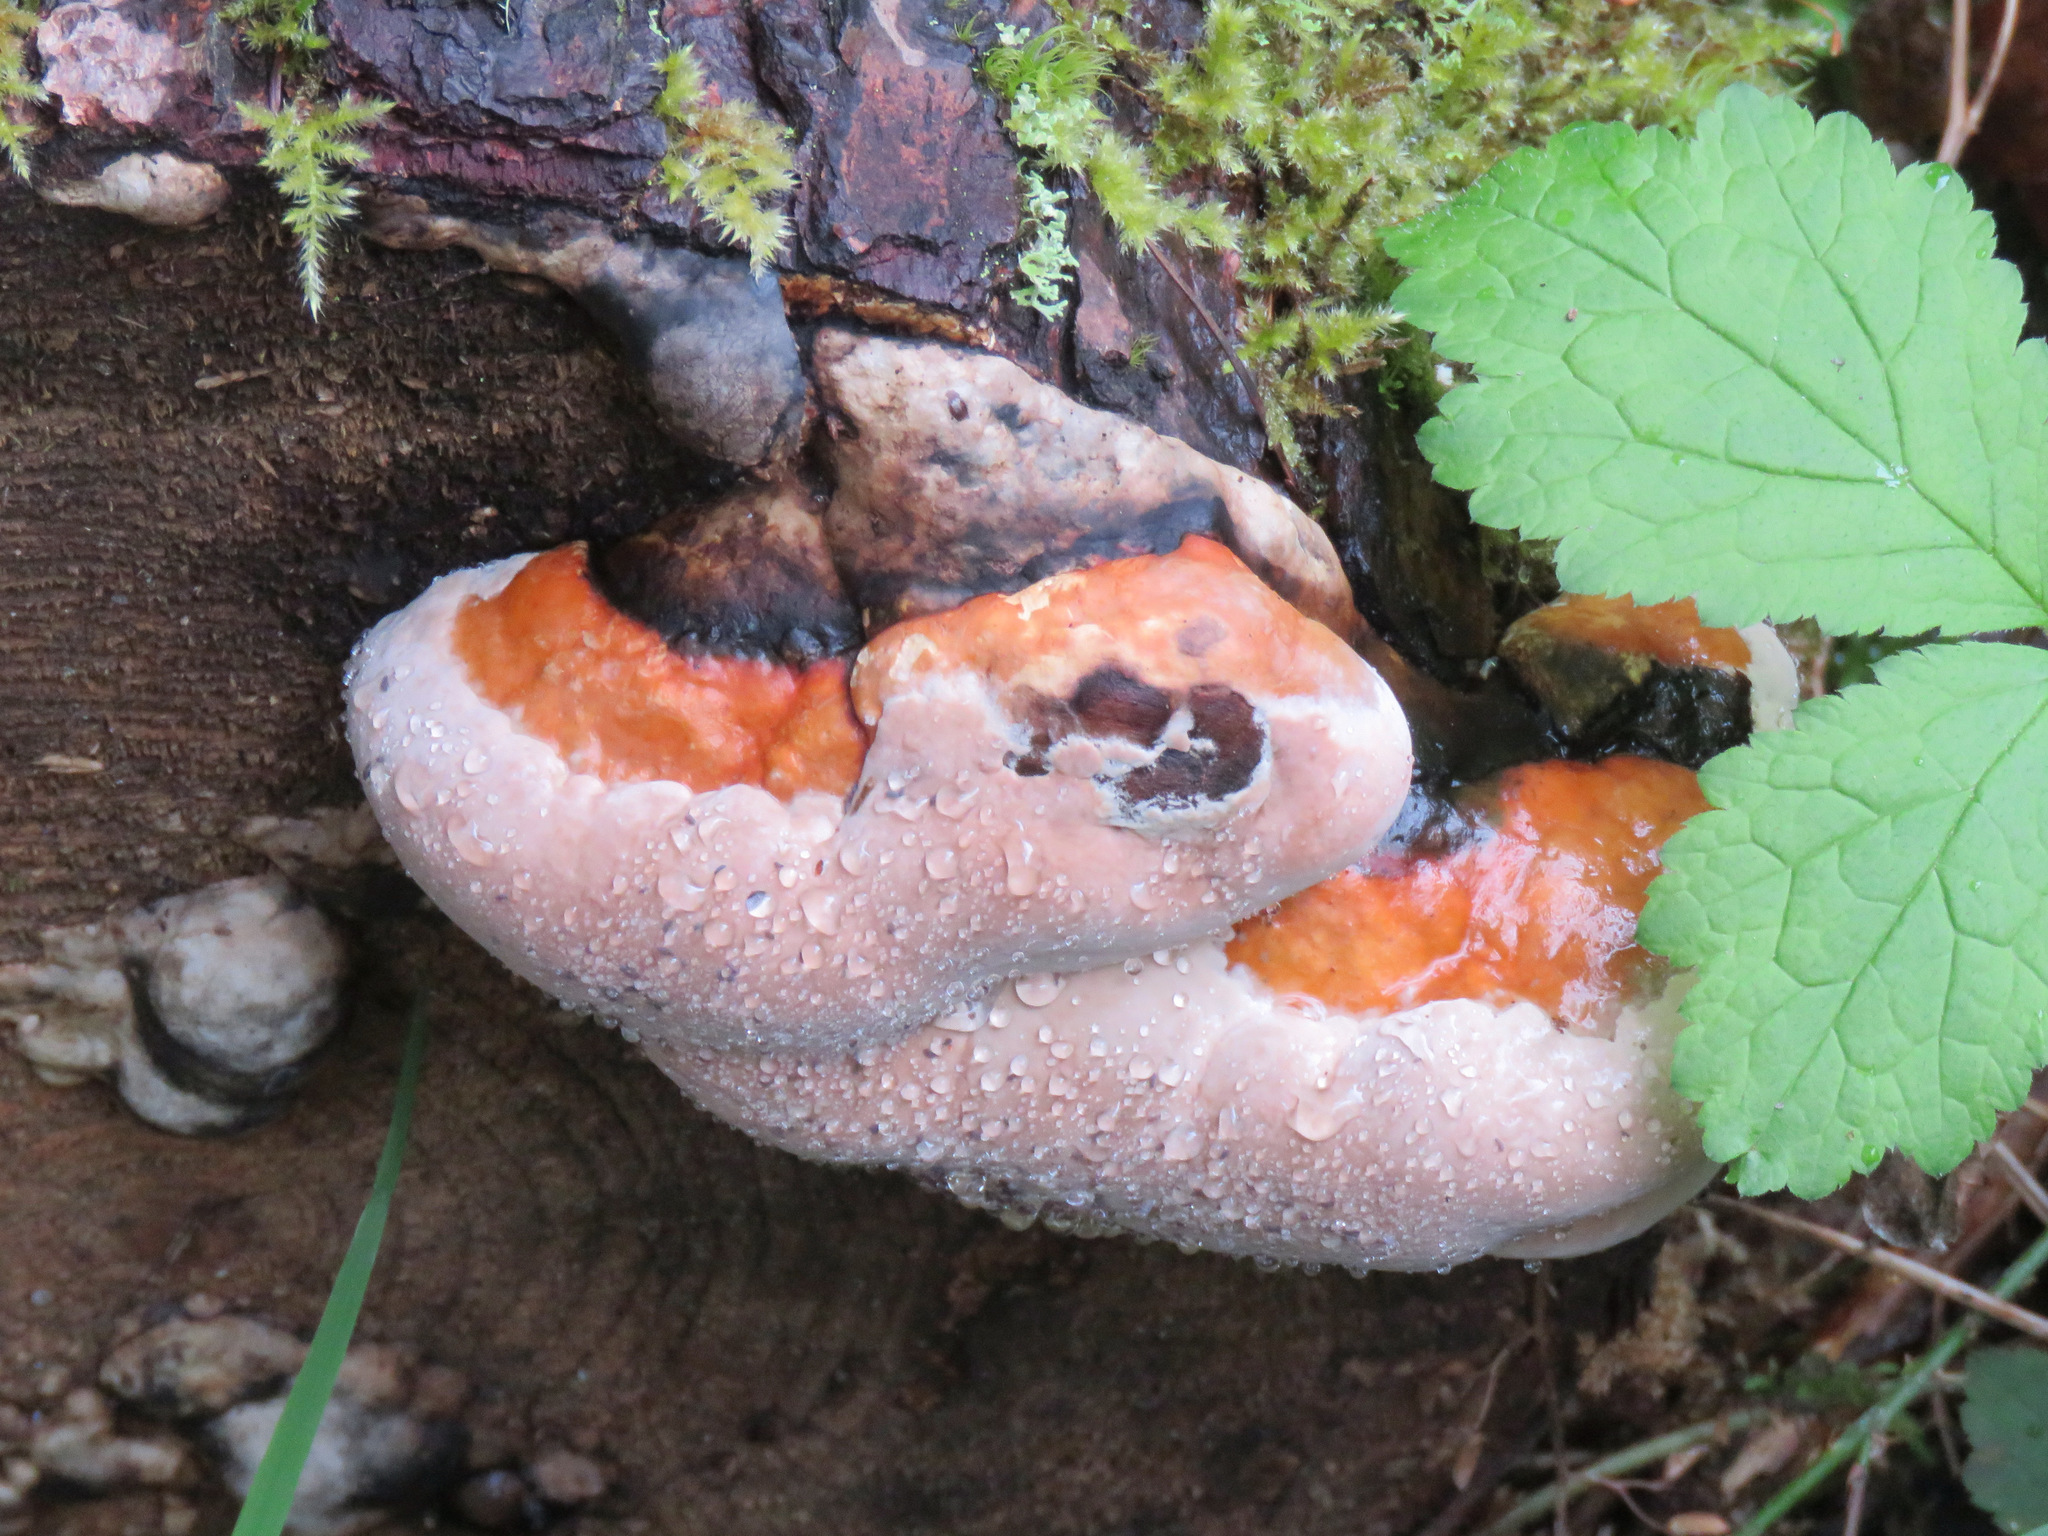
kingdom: Fungi
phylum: Basidiomycota
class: Agaricomycetes
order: Polyporales
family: Fomitopsidaceae
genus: Fomitopsis
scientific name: Fomitopsis mounceae
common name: Northern red belt
